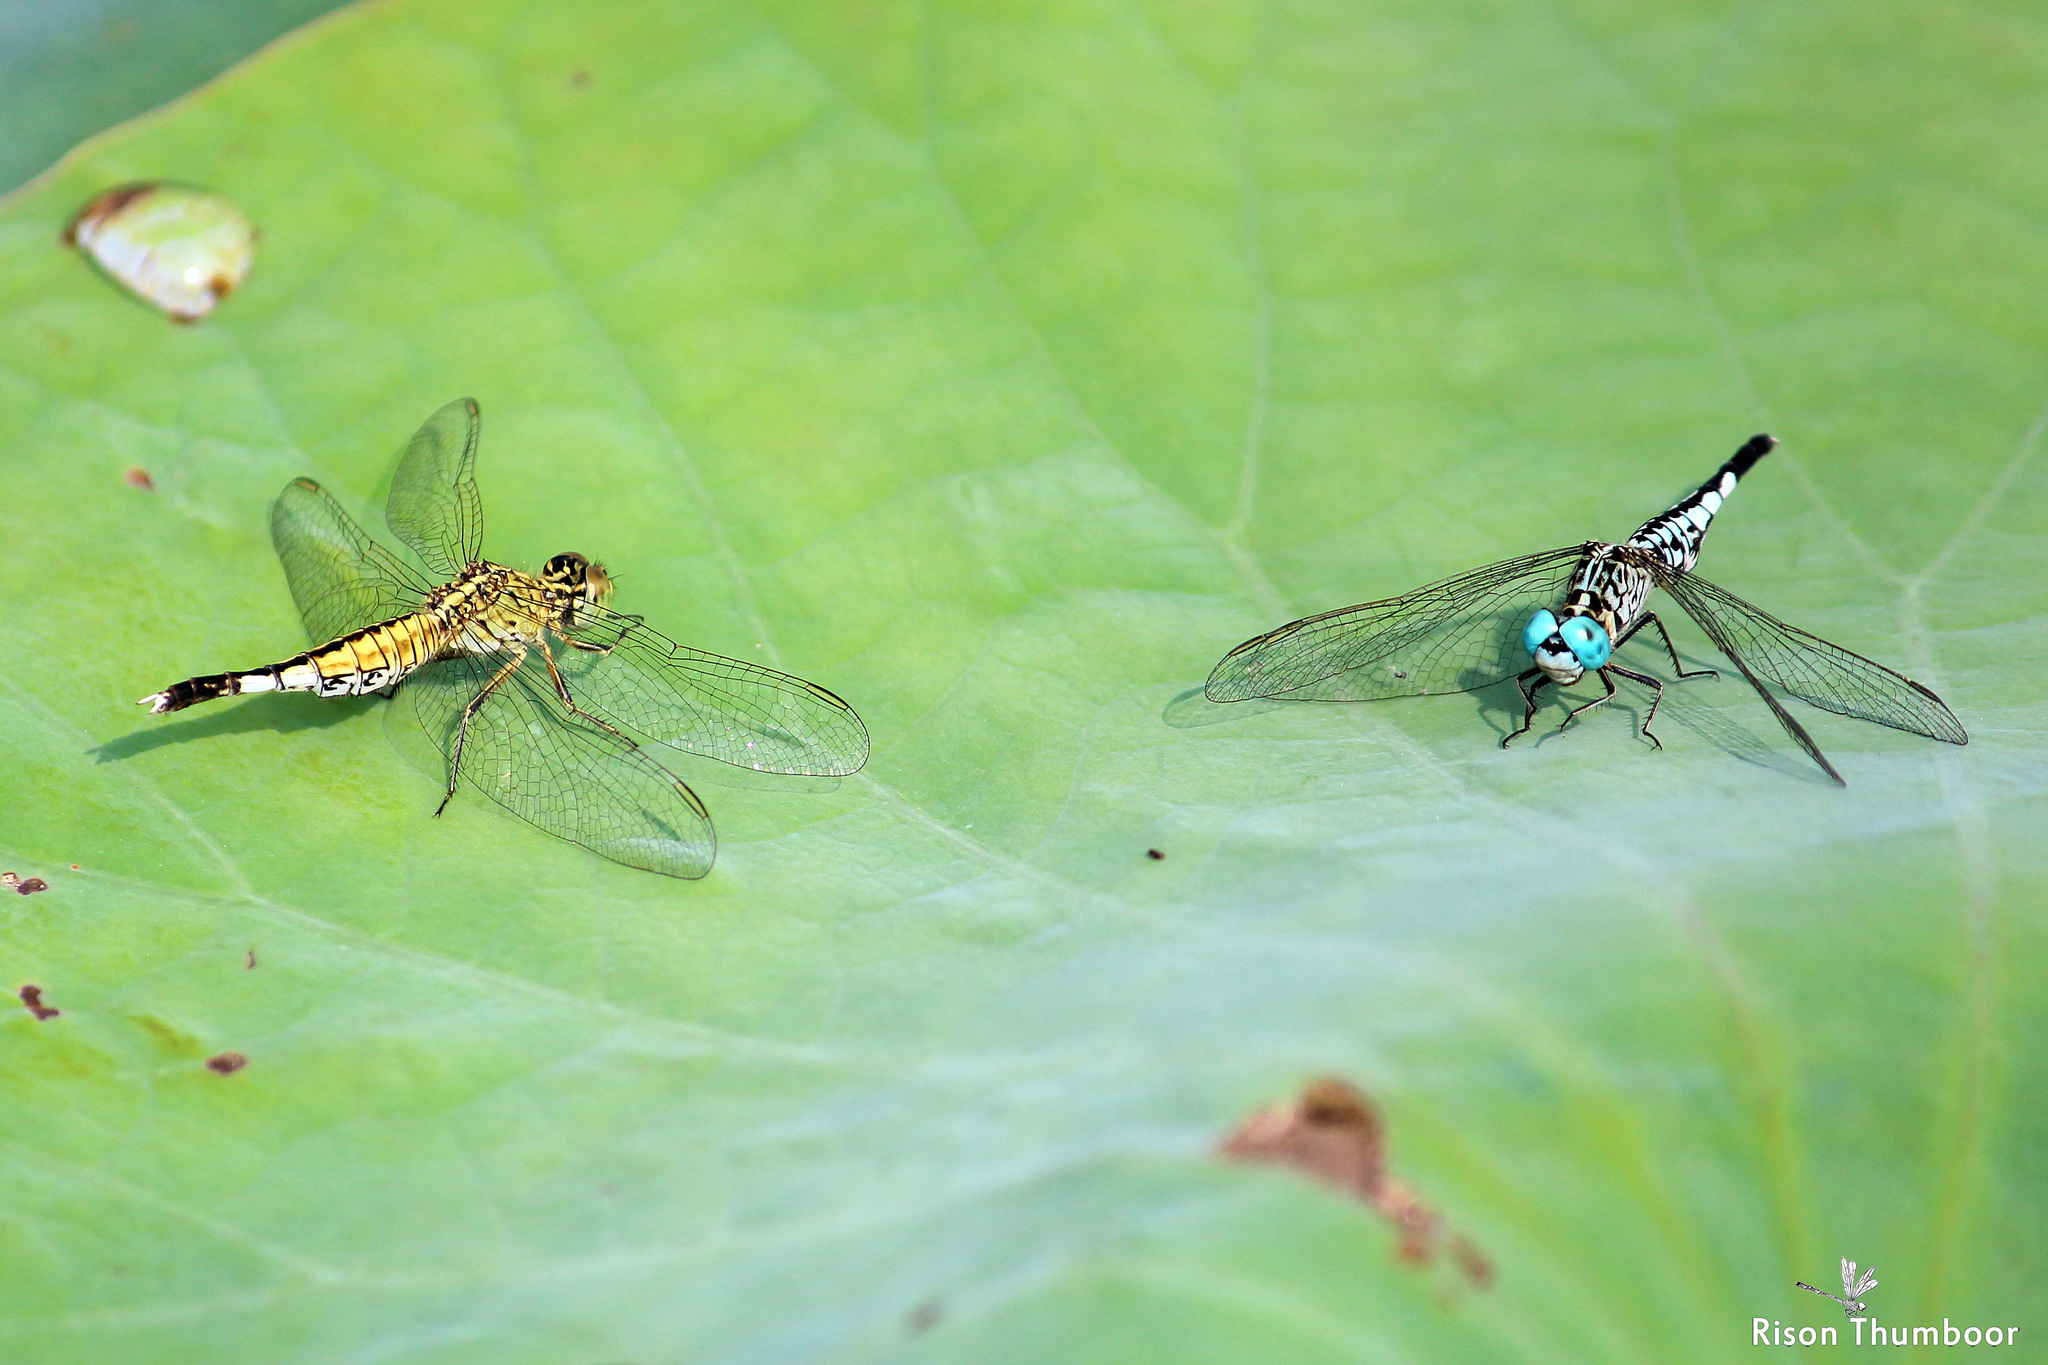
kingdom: Animalia
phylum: Arthropoda
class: Insecta
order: Odonata
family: Libellulidae
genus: Acisoma
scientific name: Acisoma panorpoides
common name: Asian pintail
